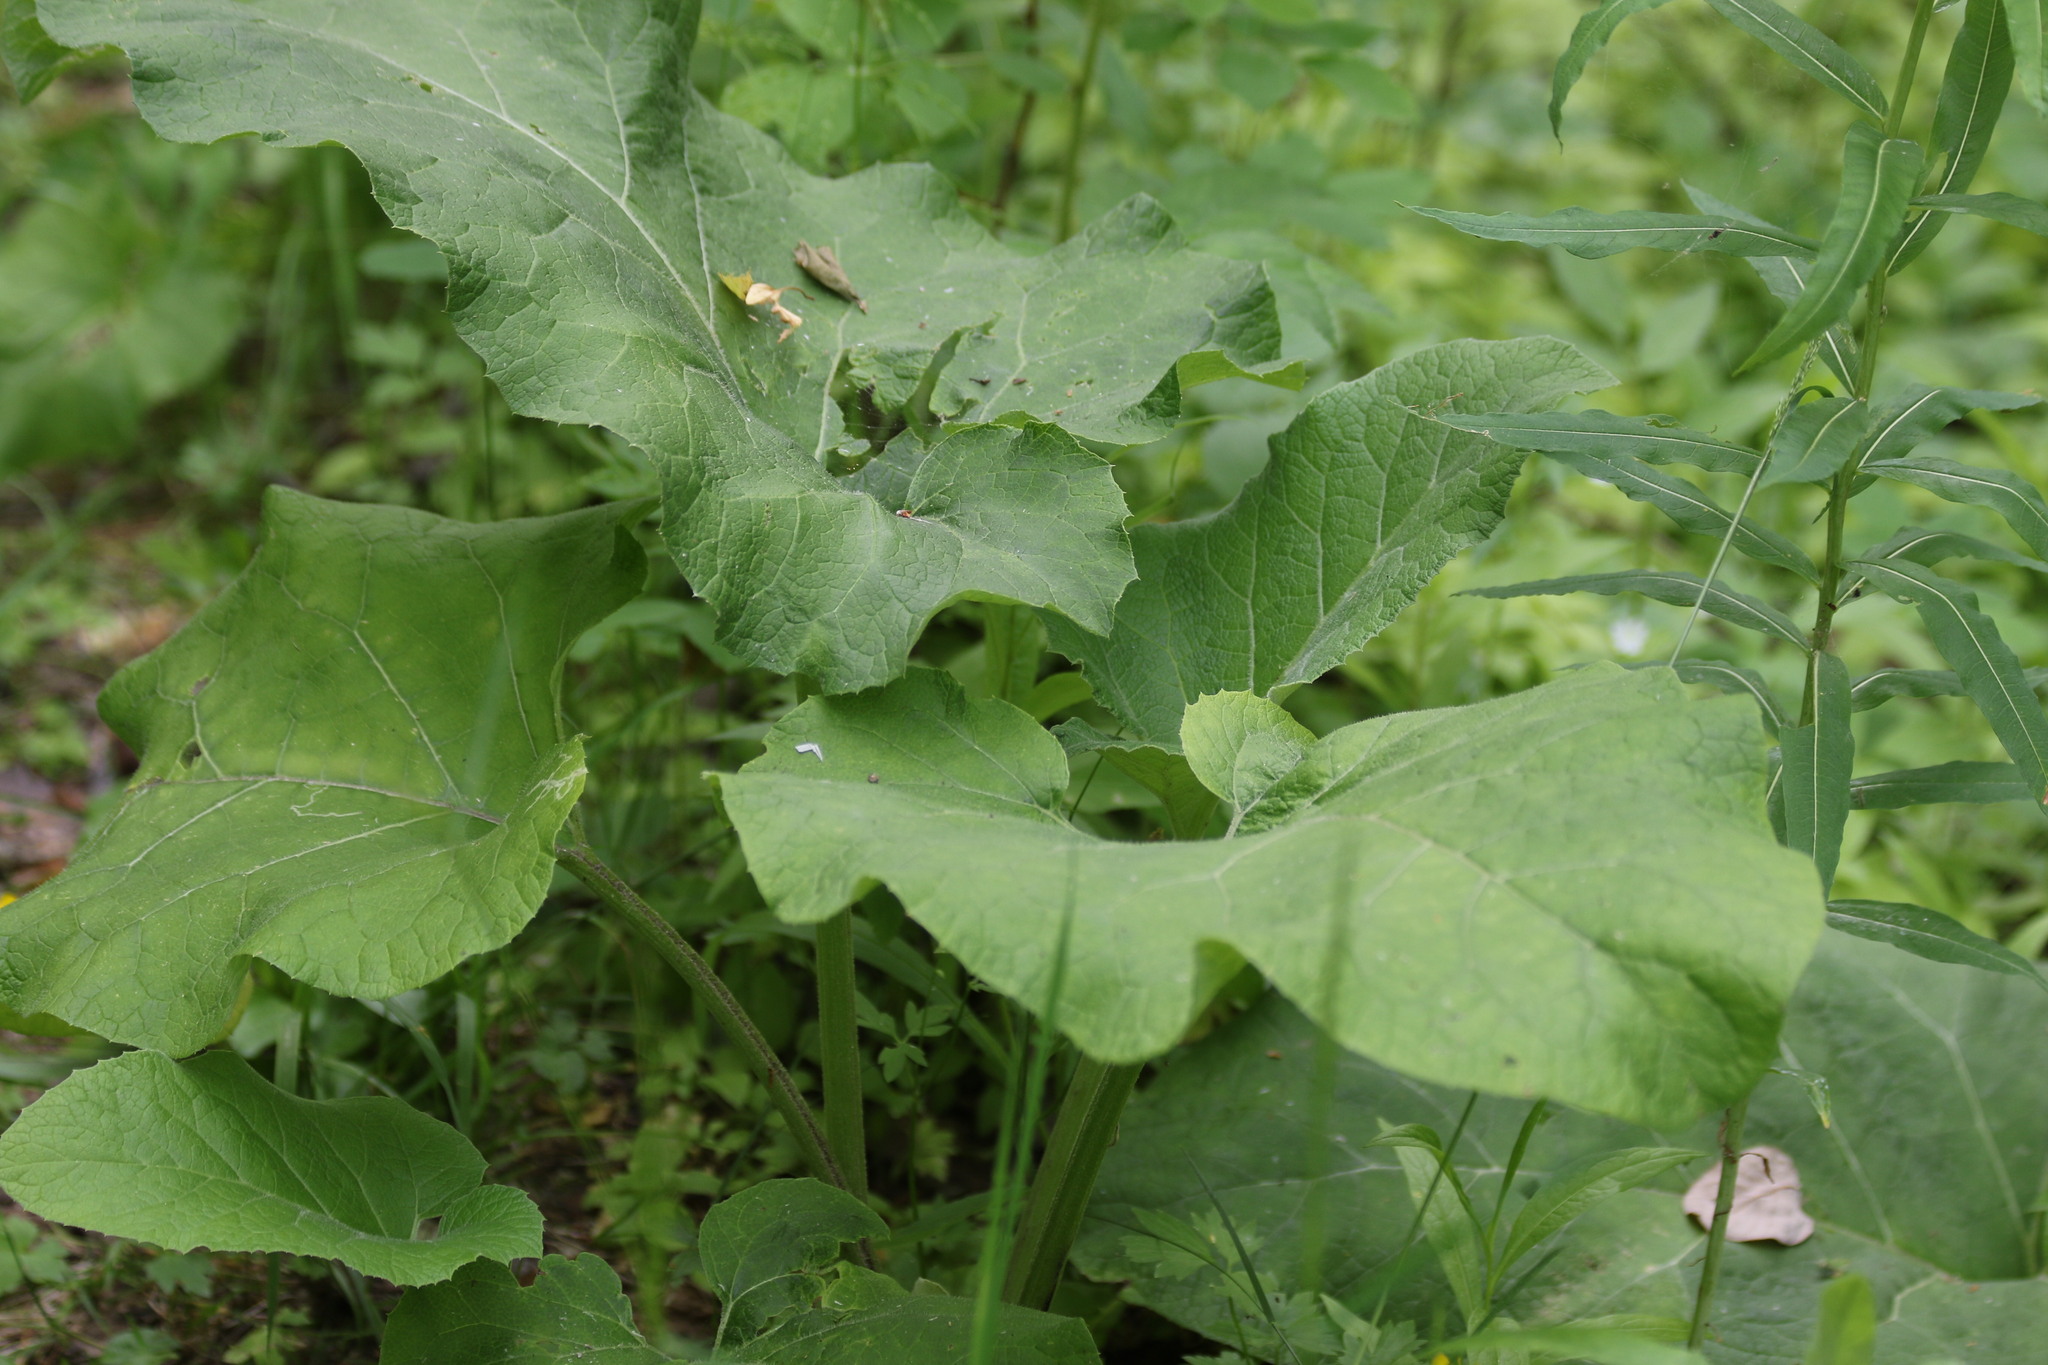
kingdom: Plantae
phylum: Tracheophyta
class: Magnoliopsida
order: Asterales
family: Asteraceae
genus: Arctium
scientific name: Arctium tomentosum
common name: Woolly burdock
